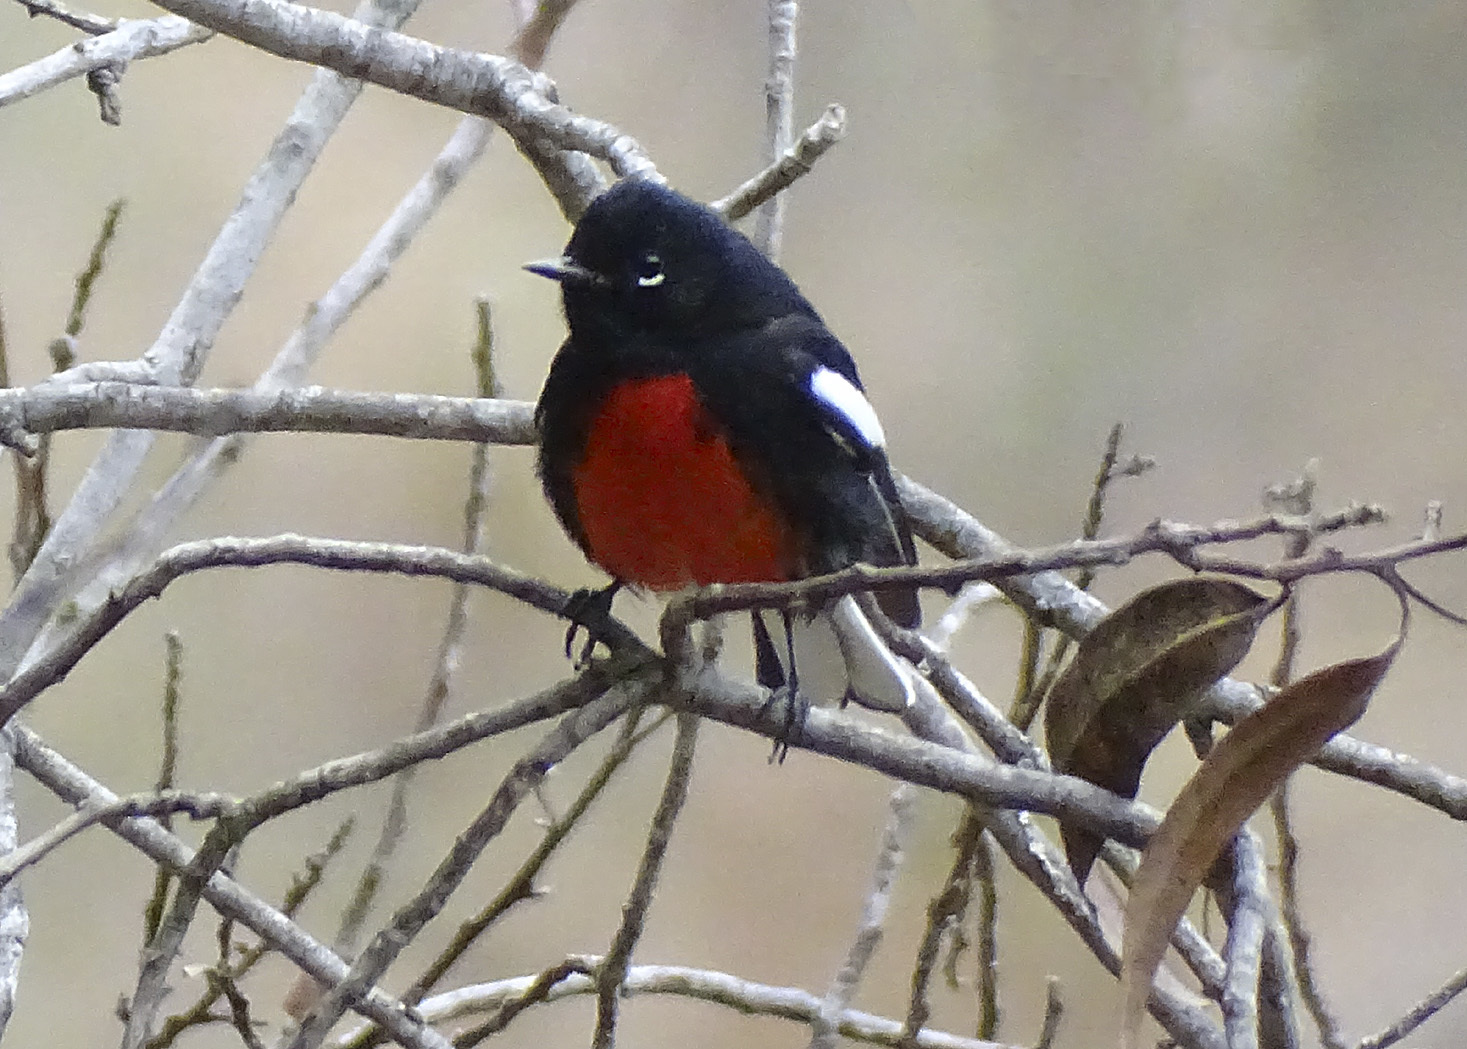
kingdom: Animalia
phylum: Chordata
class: Aves
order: Passeriformes
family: Parulidae
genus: Myioborus
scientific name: Myioborus pictus
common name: Painted whitestart
